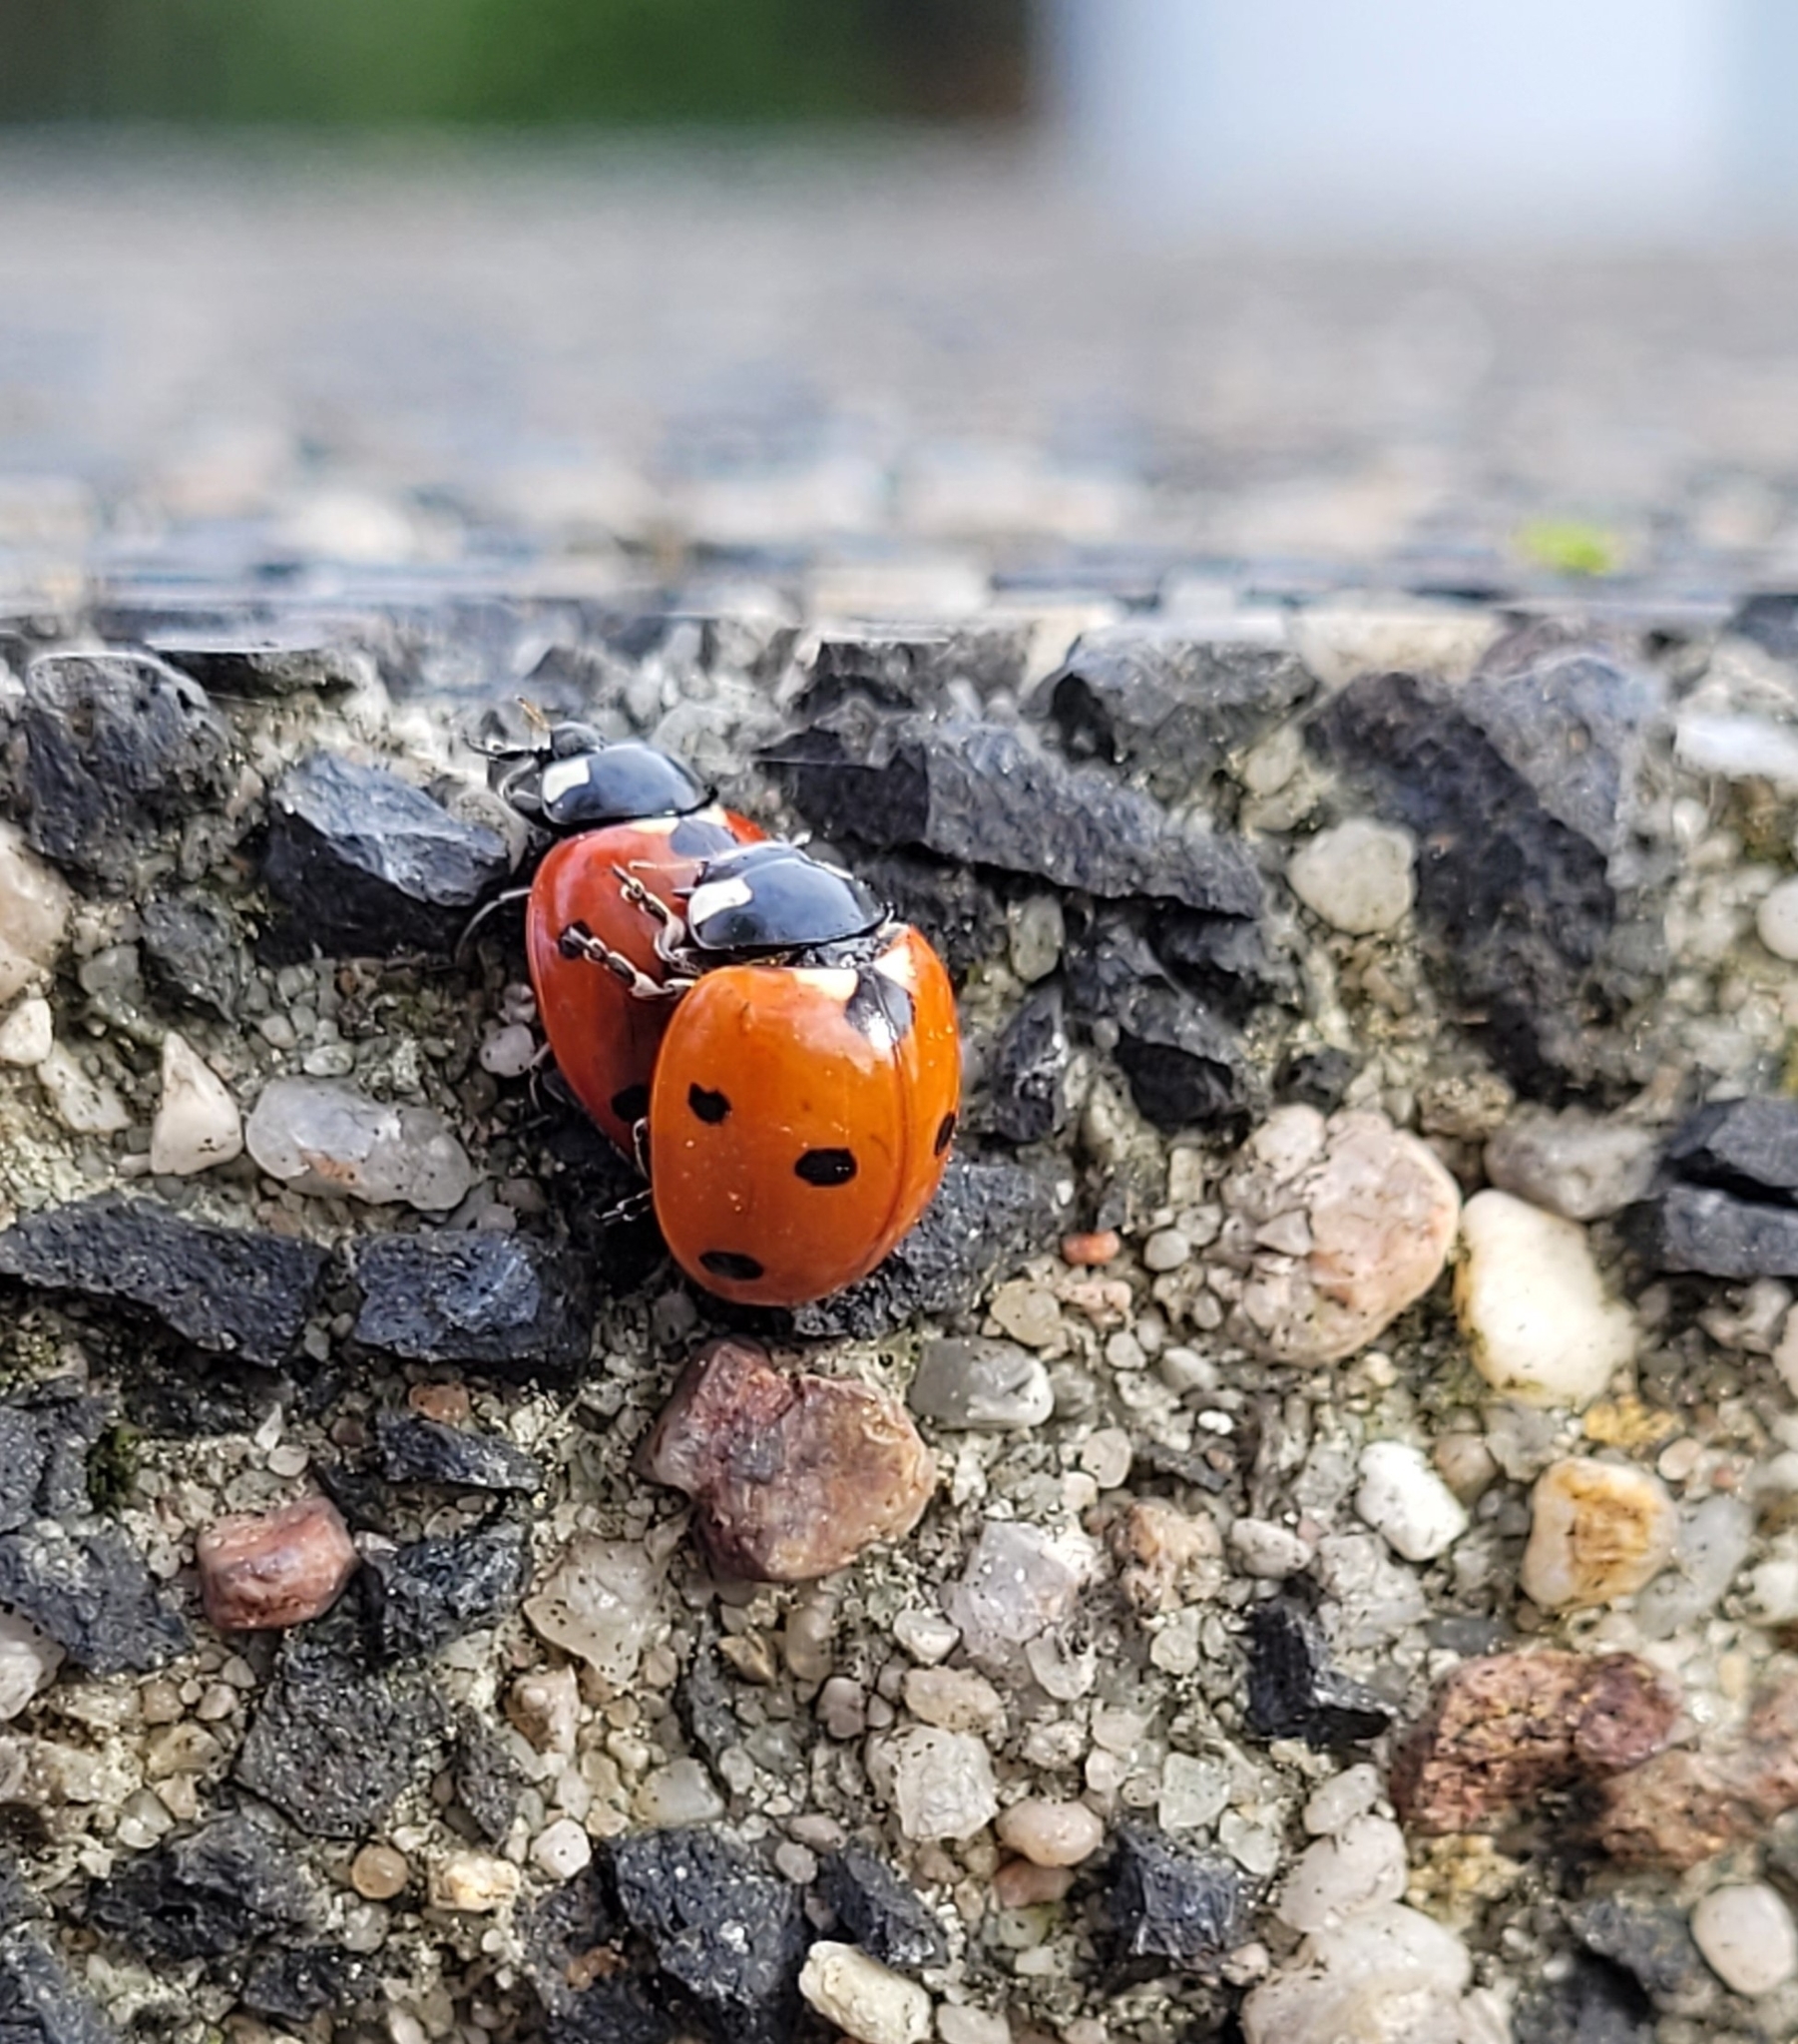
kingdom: Animalia
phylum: Arthropoda
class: Insecta
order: Coleoptera
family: Coccinellidae
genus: Coccinella
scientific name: Coccinella septempunctata
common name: Sevenspotted lady beetle
